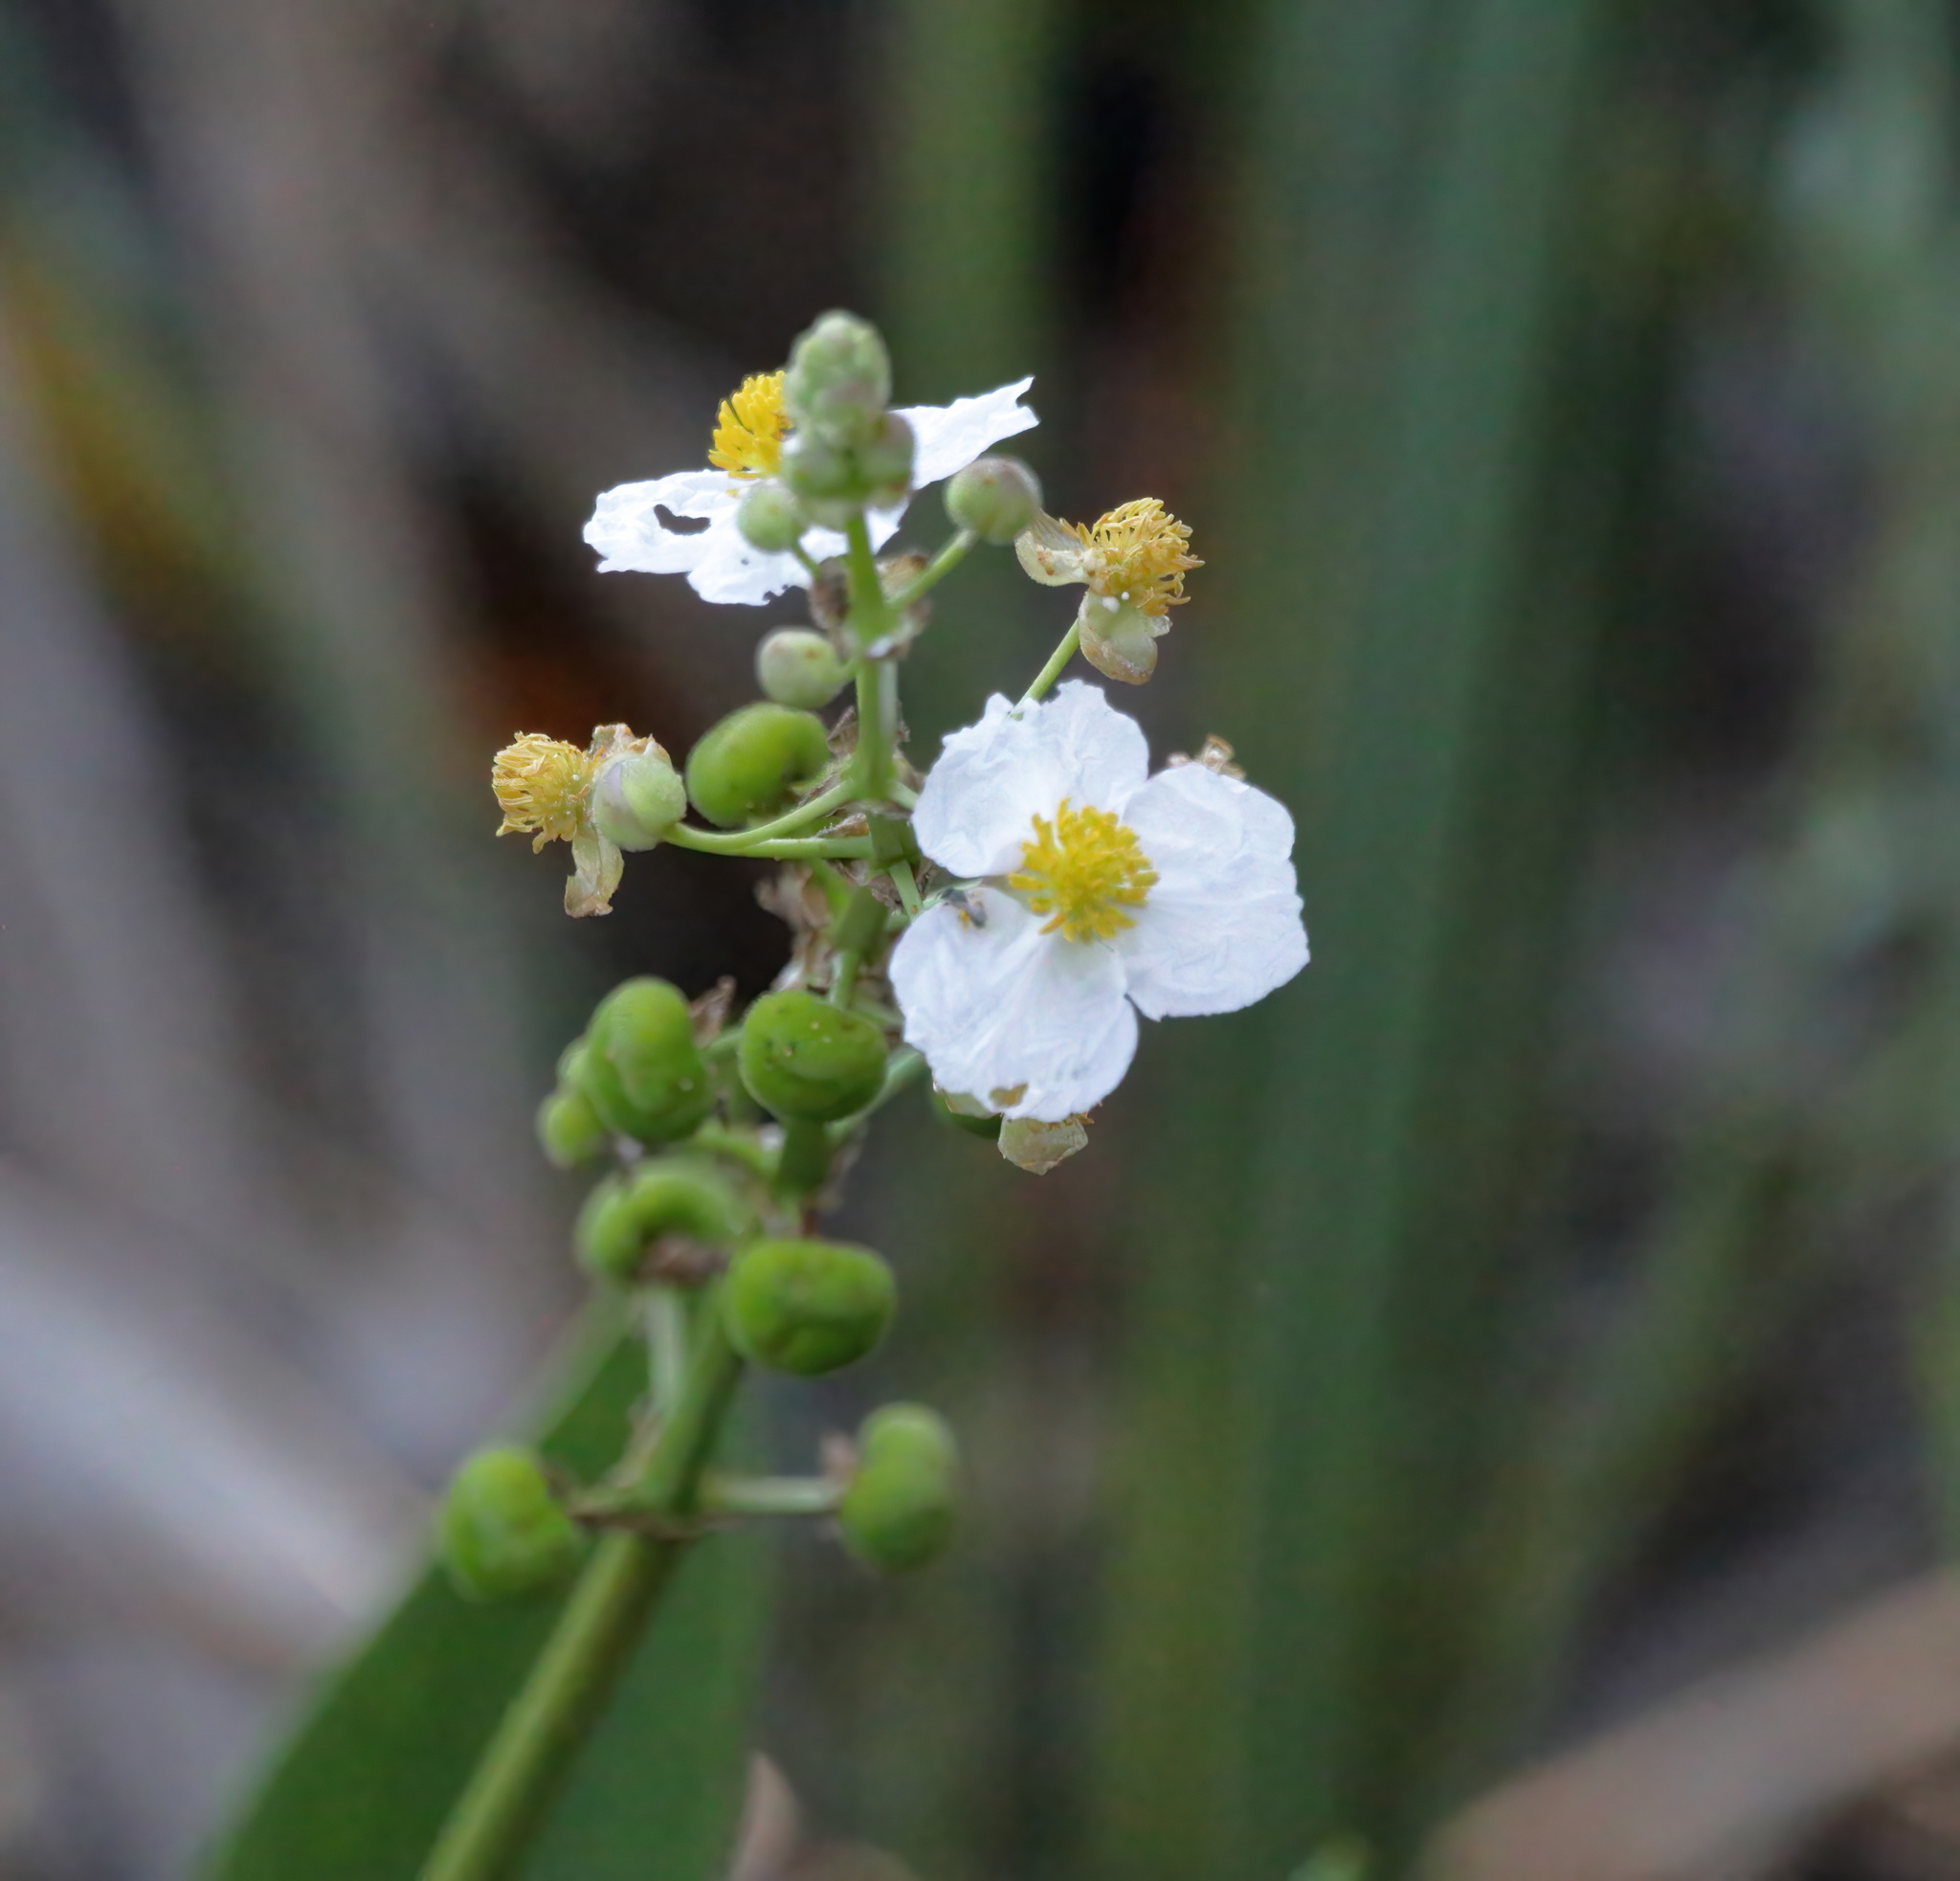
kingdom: Plantae
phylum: Tracheophyta
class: Liliopsida
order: Alismatales
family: Alismataceae
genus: Sagittaria
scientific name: Sagittaria lancifolia
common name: Lance-leaf arrowhead
